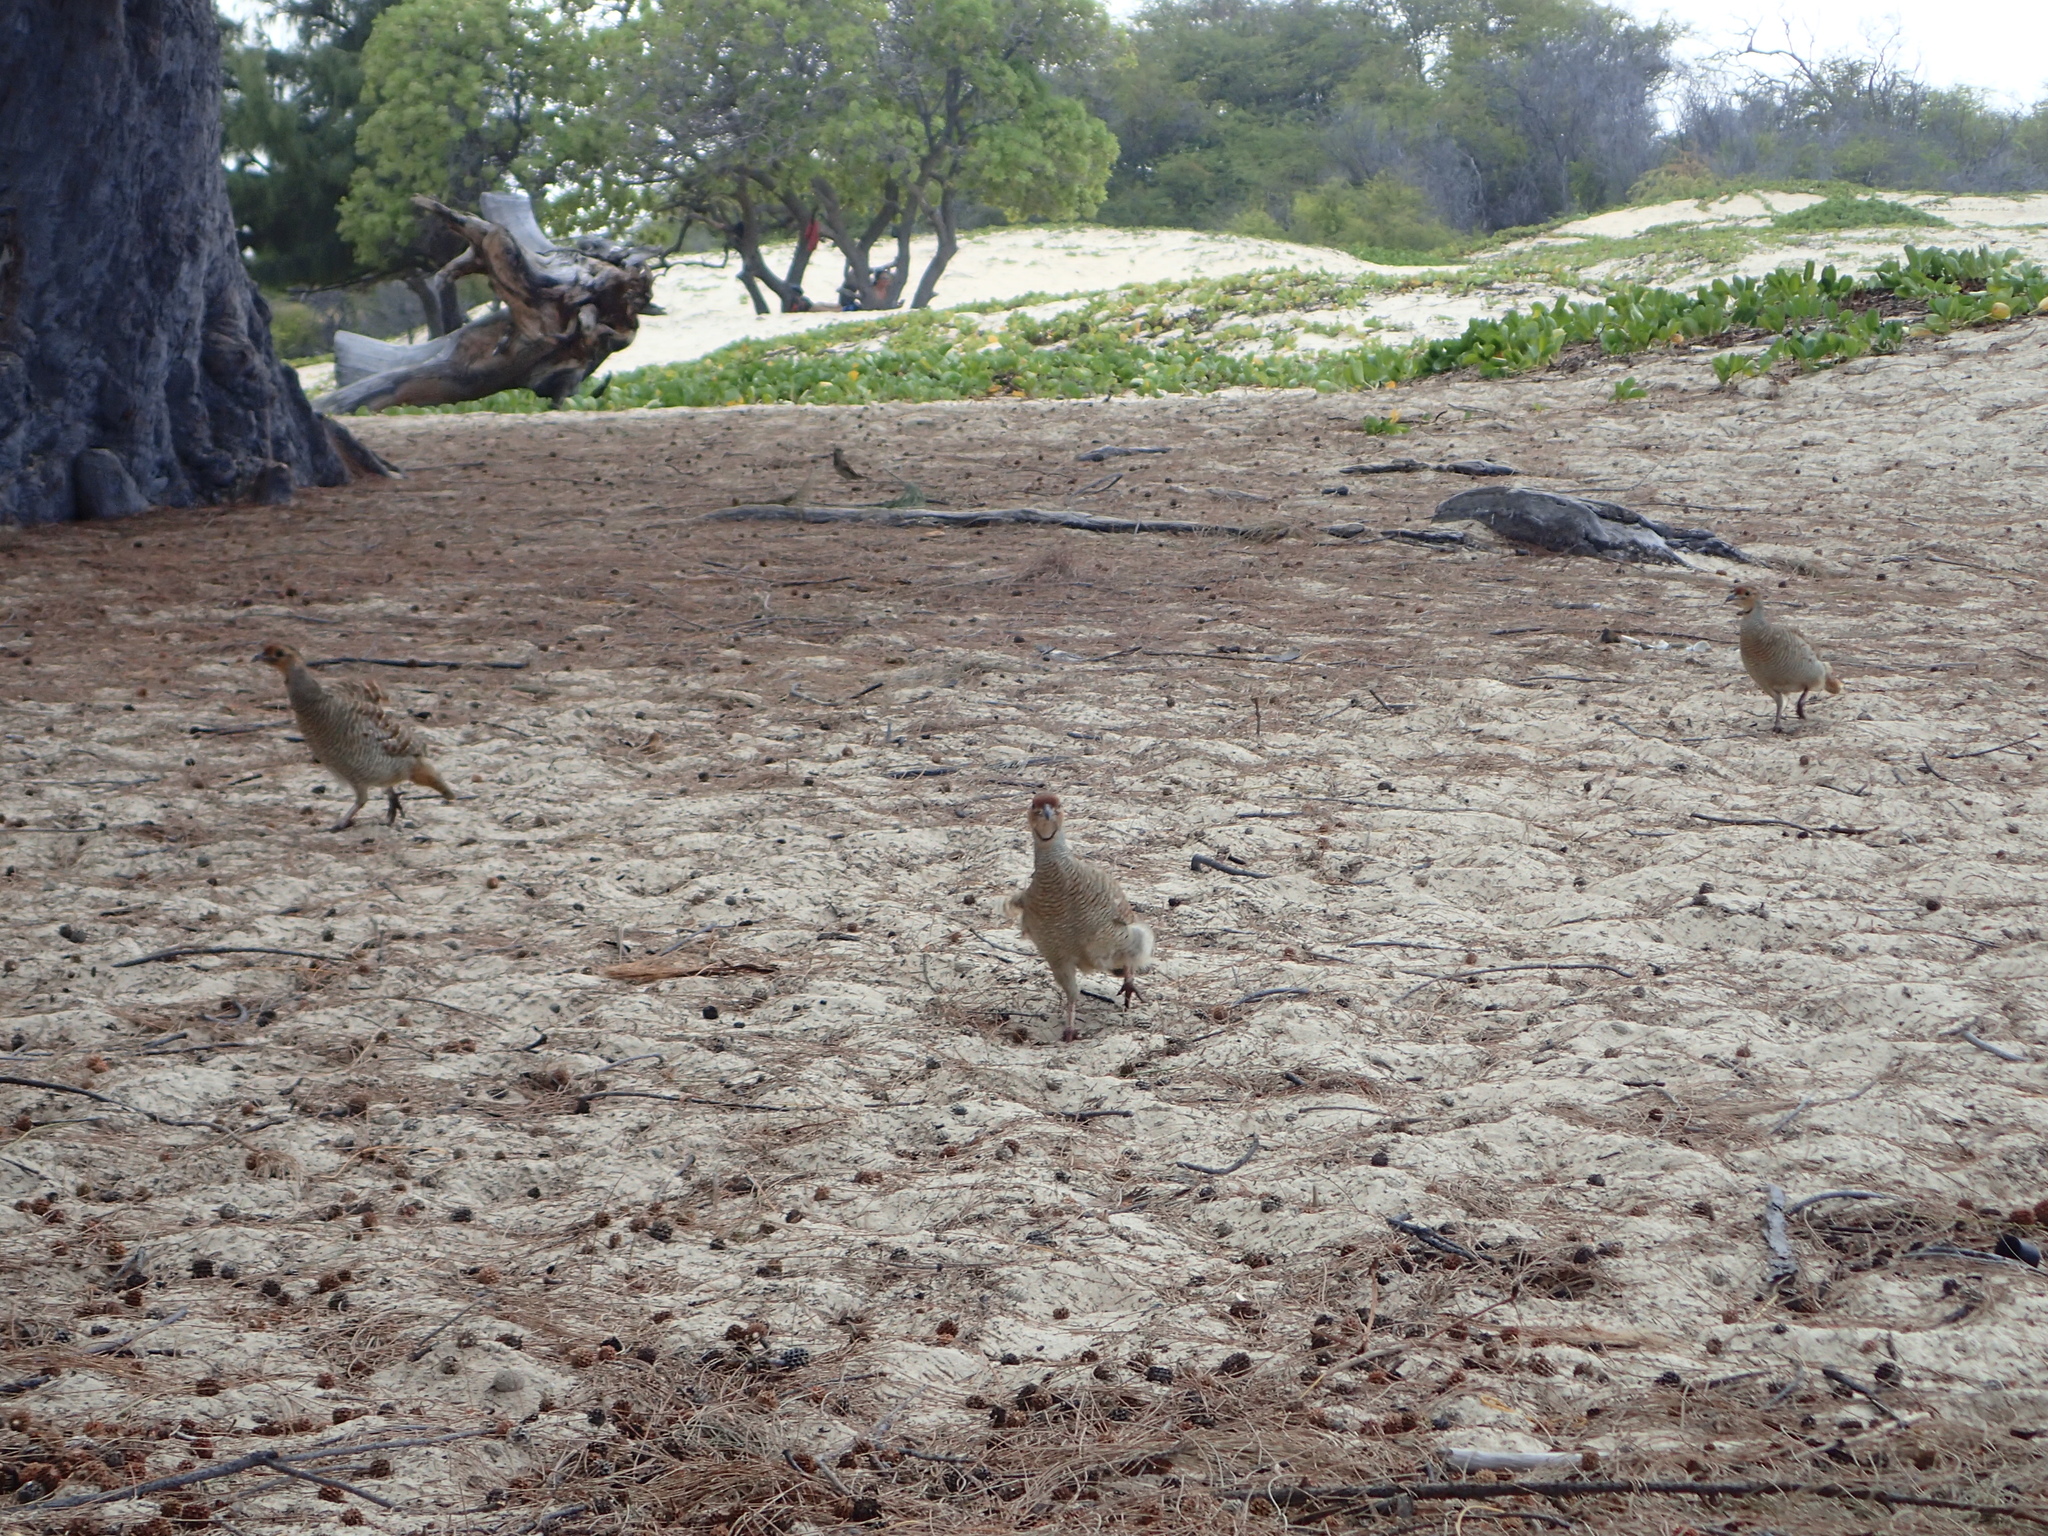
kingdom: Animalia
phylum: Chordata
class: Aves
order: Galliformes
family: Phasianidae
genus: Ortygornis
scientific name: Ortygornis pondicerianus
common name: Grey francolin
